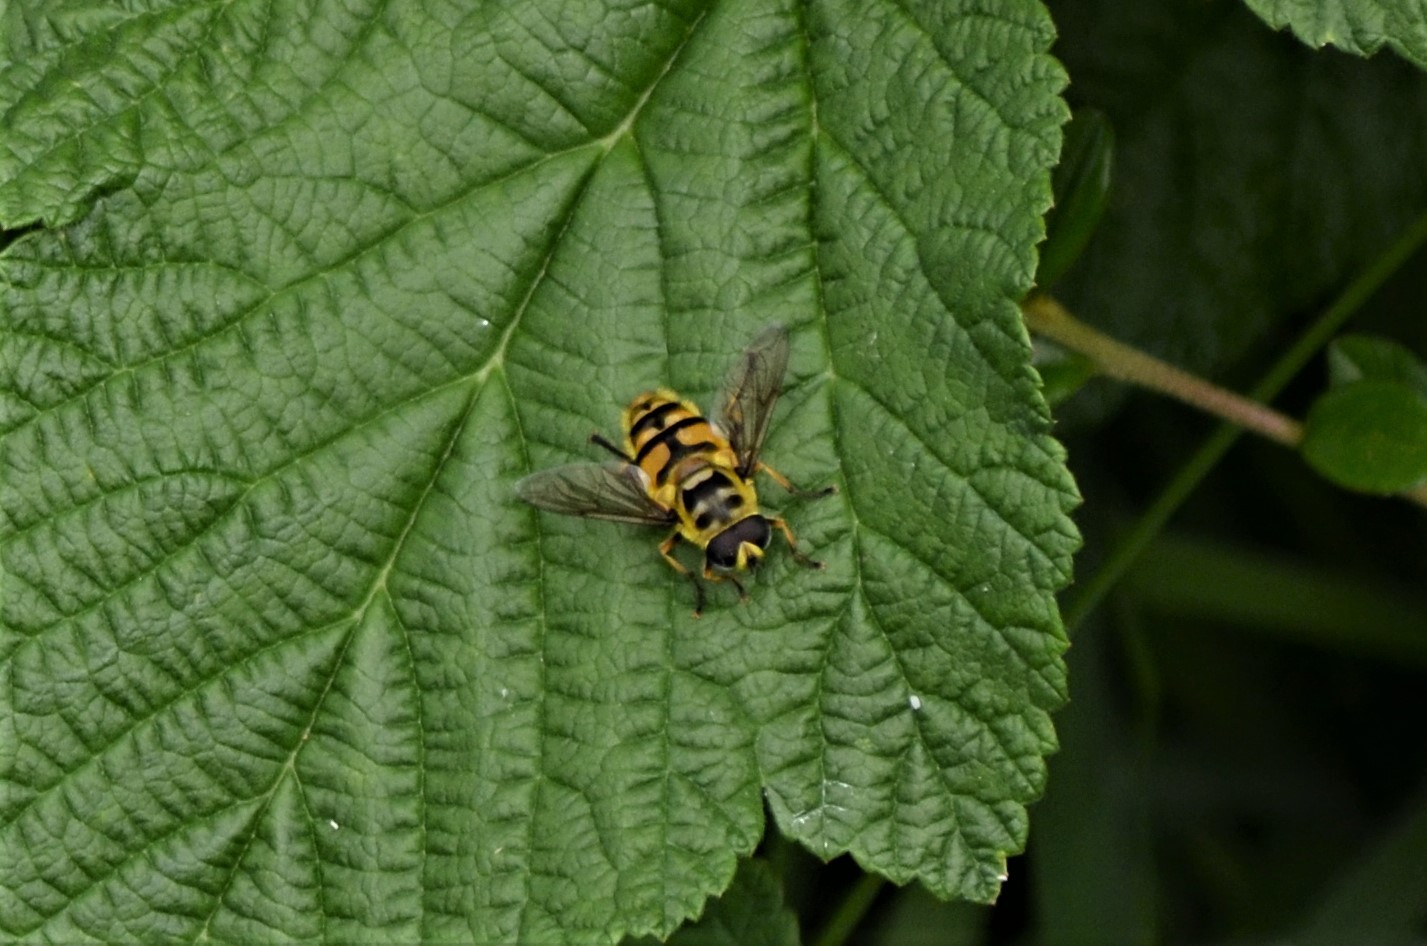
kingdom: Animalia
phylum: Arthropoda
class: Insecta
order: Diptera
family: Syrphidae
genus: Myathropa
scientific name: Myathropa florea
